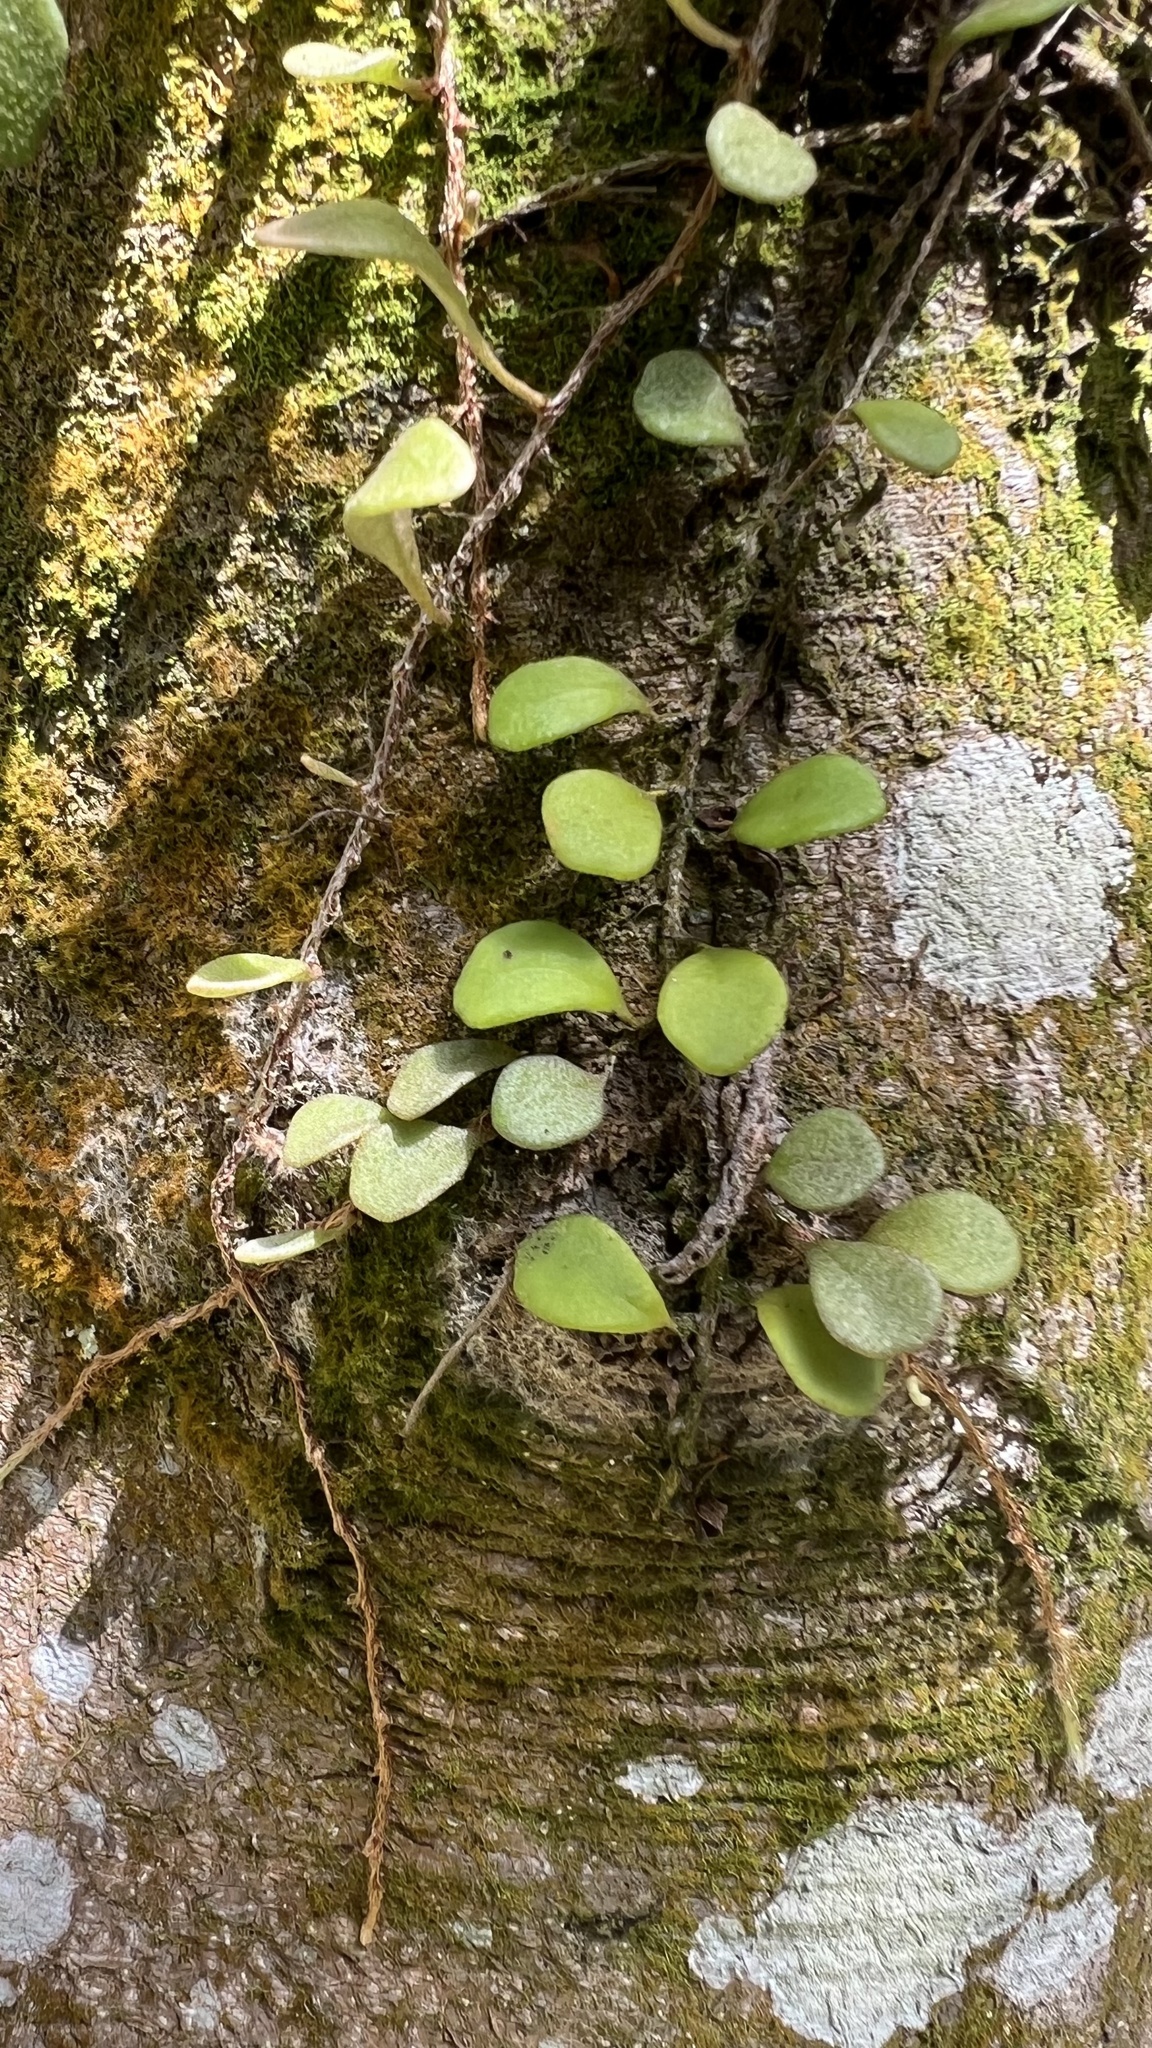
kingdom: Plantae
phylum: Tracheophyta
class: Polypodiopsida
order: Polypodiales
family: Polypodiaceae
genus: Pyrrosia
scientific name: Pyrrosia rupestris
